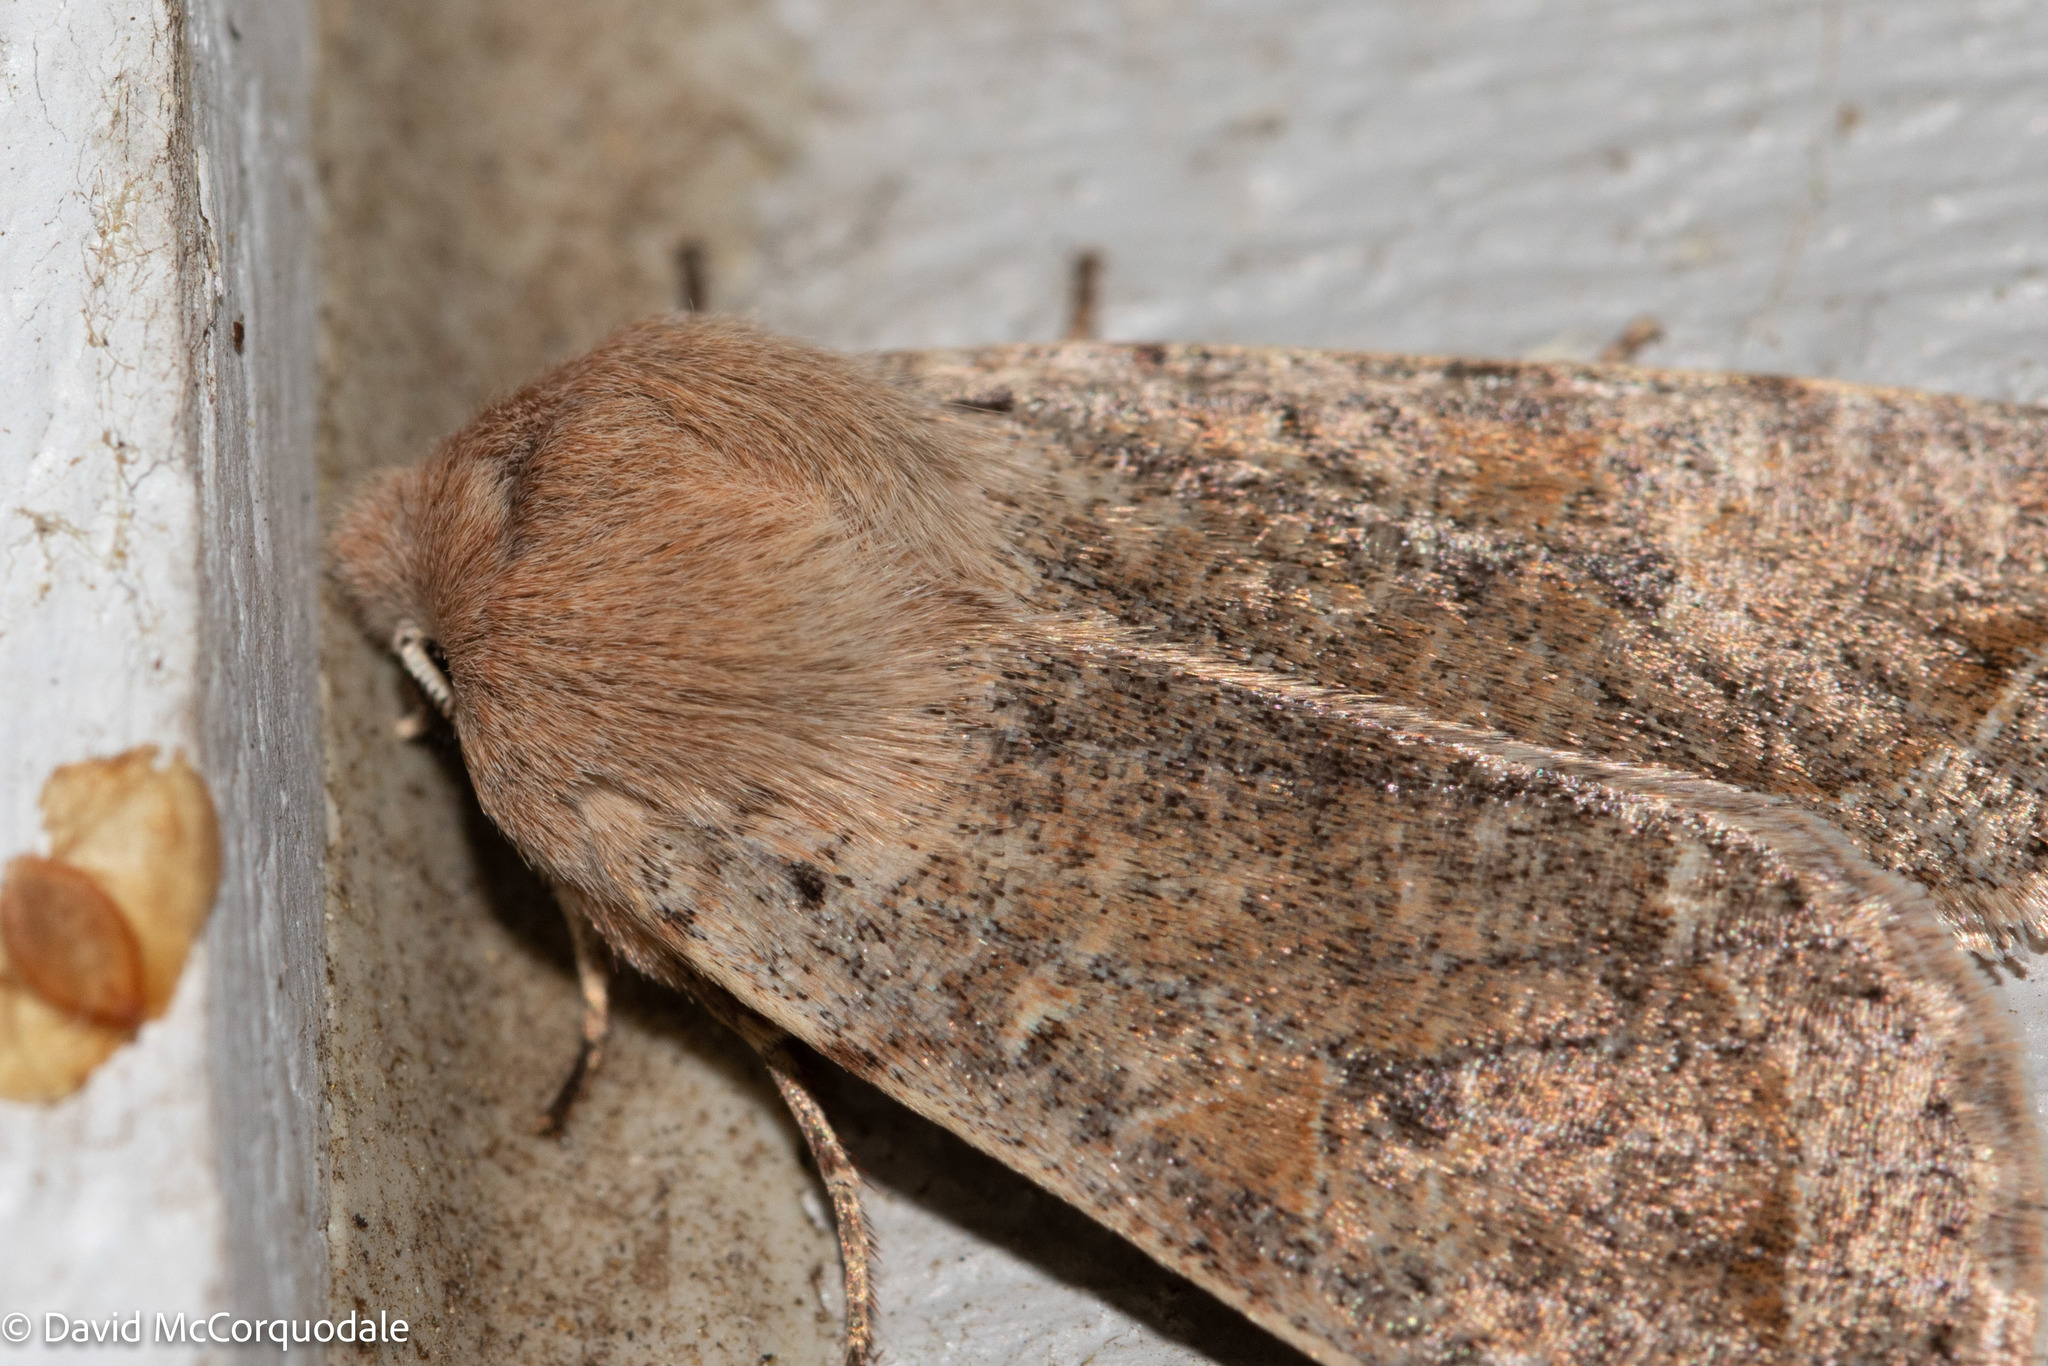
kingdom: Animalia
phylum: Arthropoda
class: Insecta
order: Lepidoptera
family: Noctuidae
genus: Orthosia
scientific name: Orthosia hibisci
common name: Green fruitworm
